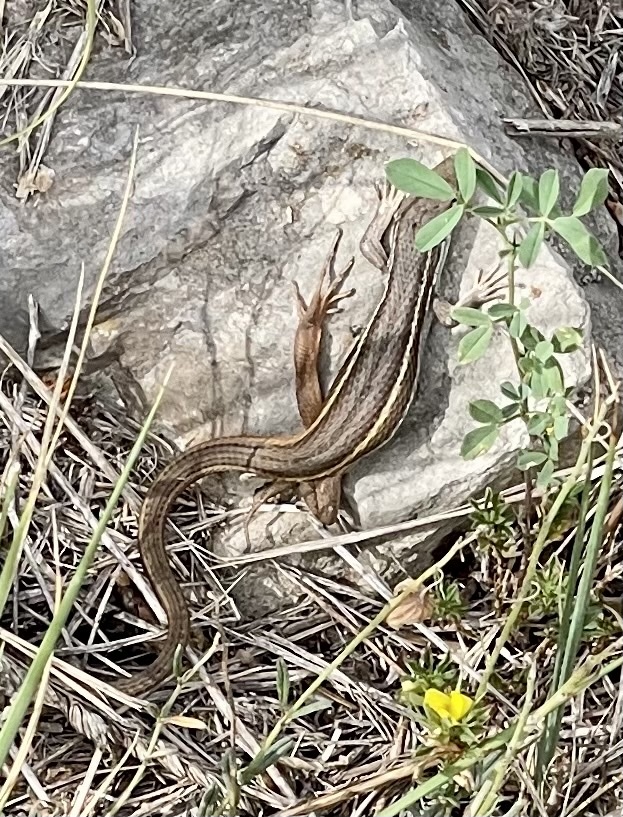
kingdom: Animalia
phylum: Chordata
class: Squamata
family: Lacertidae
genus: Psammodromus
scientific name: Psammodromus algirus
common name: Algerian psammodromus
